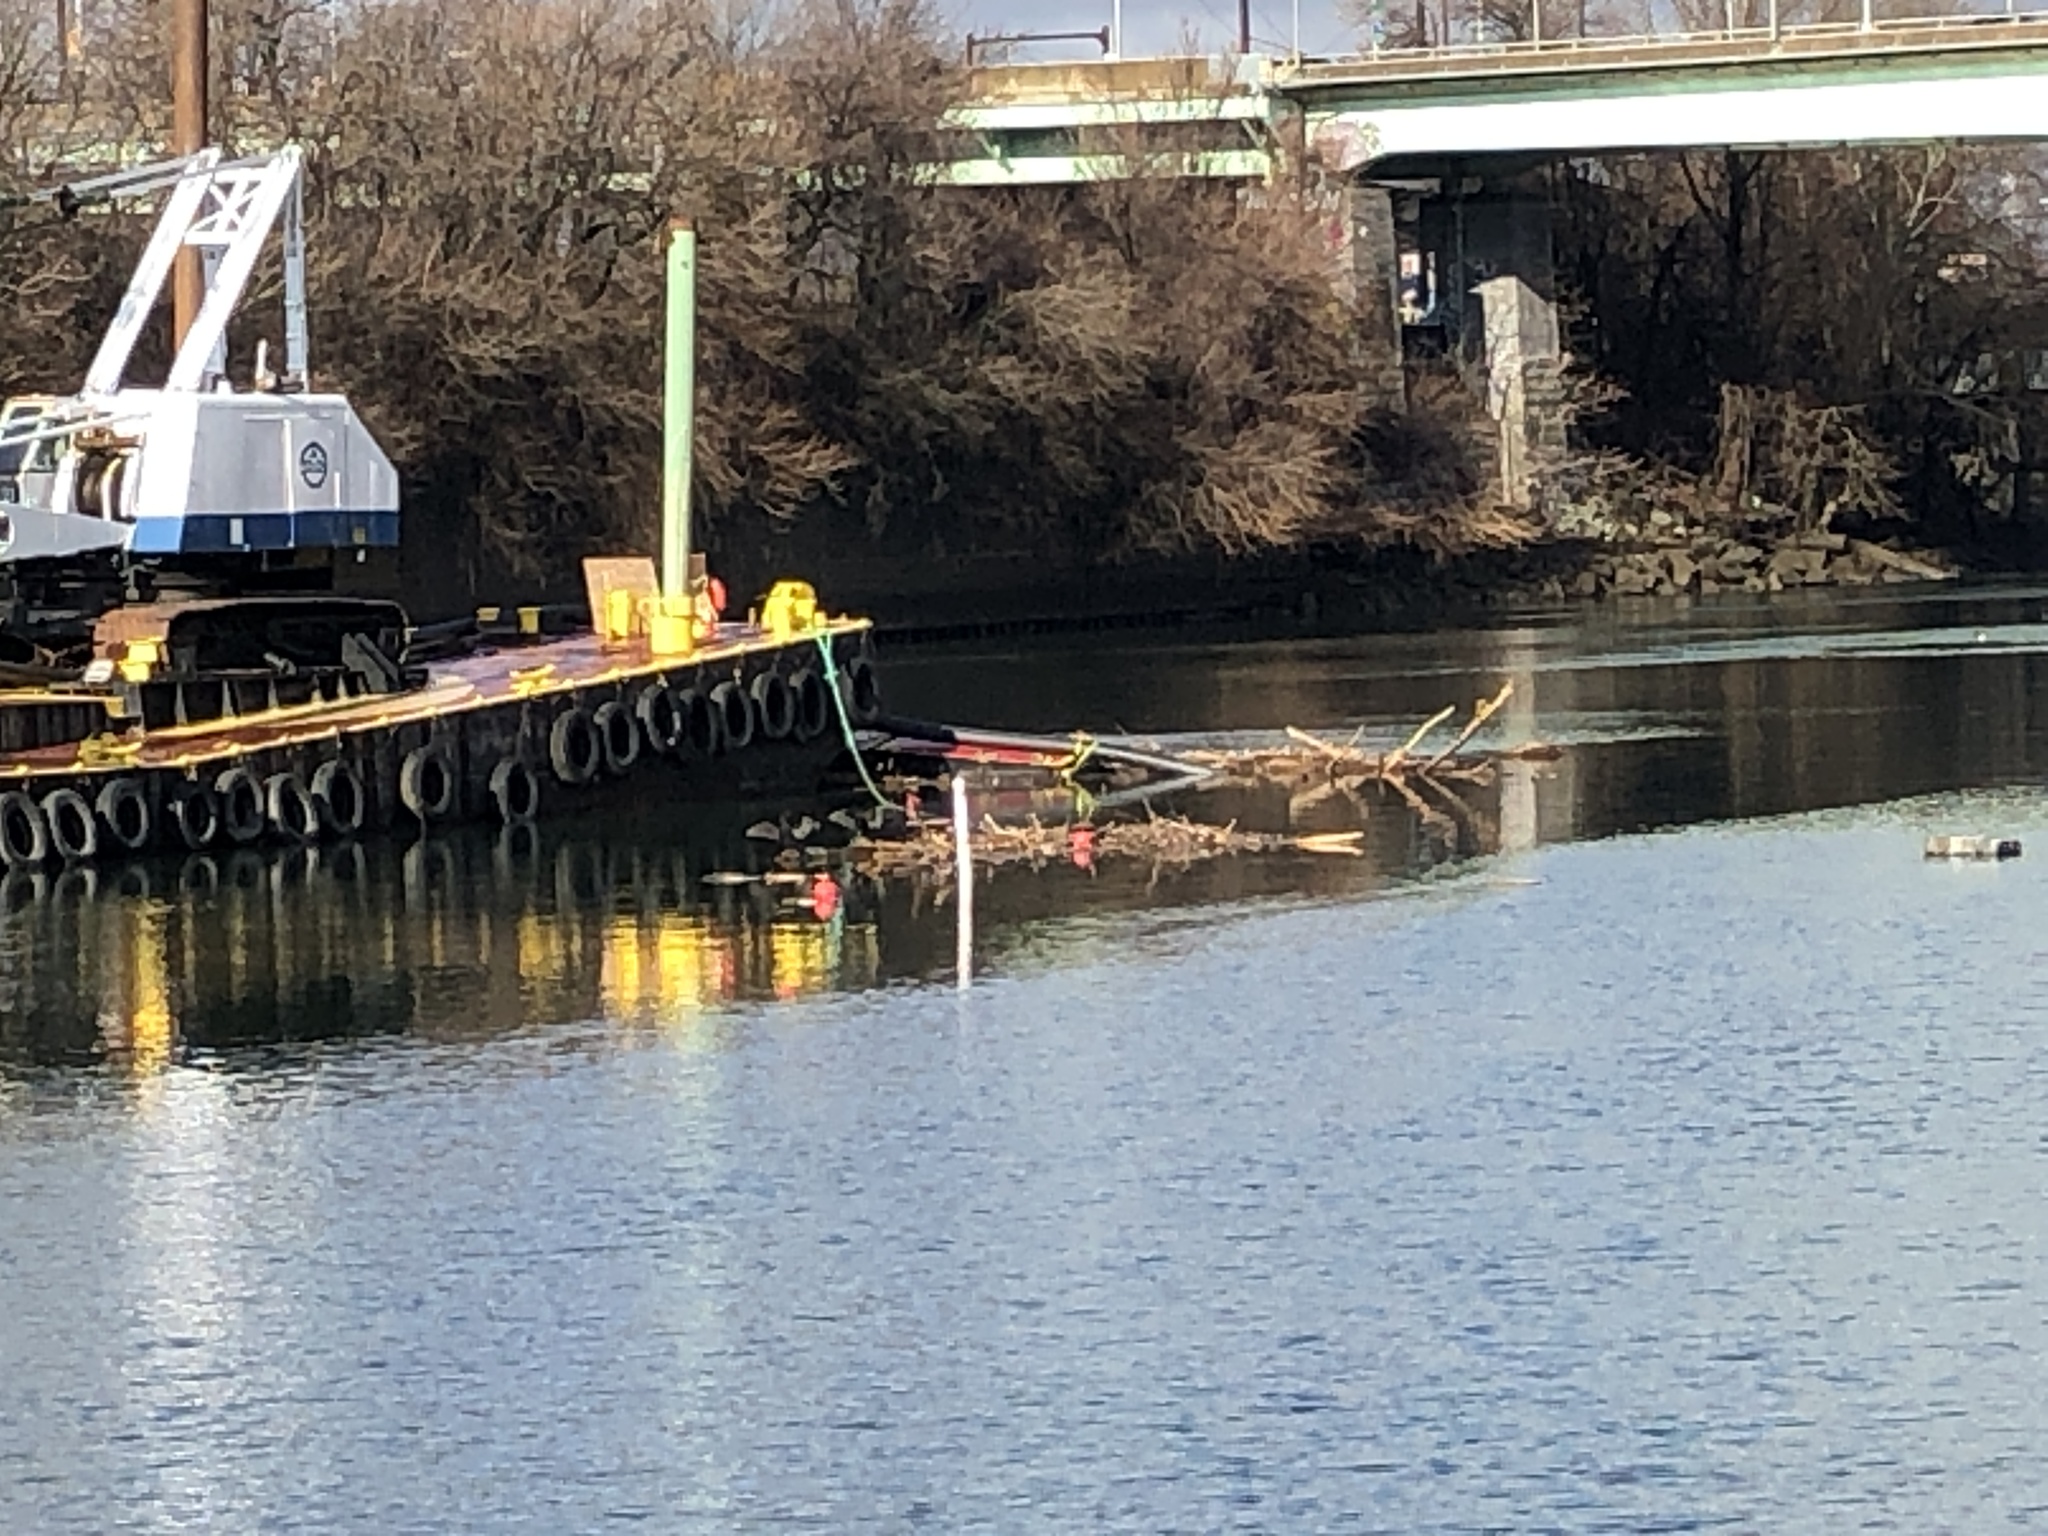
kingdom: Animalia
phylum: Chordata
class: Aves
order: Suliformes
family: Phalacrocoracidae
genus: Phalacrocorax
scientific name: Phalacrocorax auritus
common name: Double-crested cormorant
